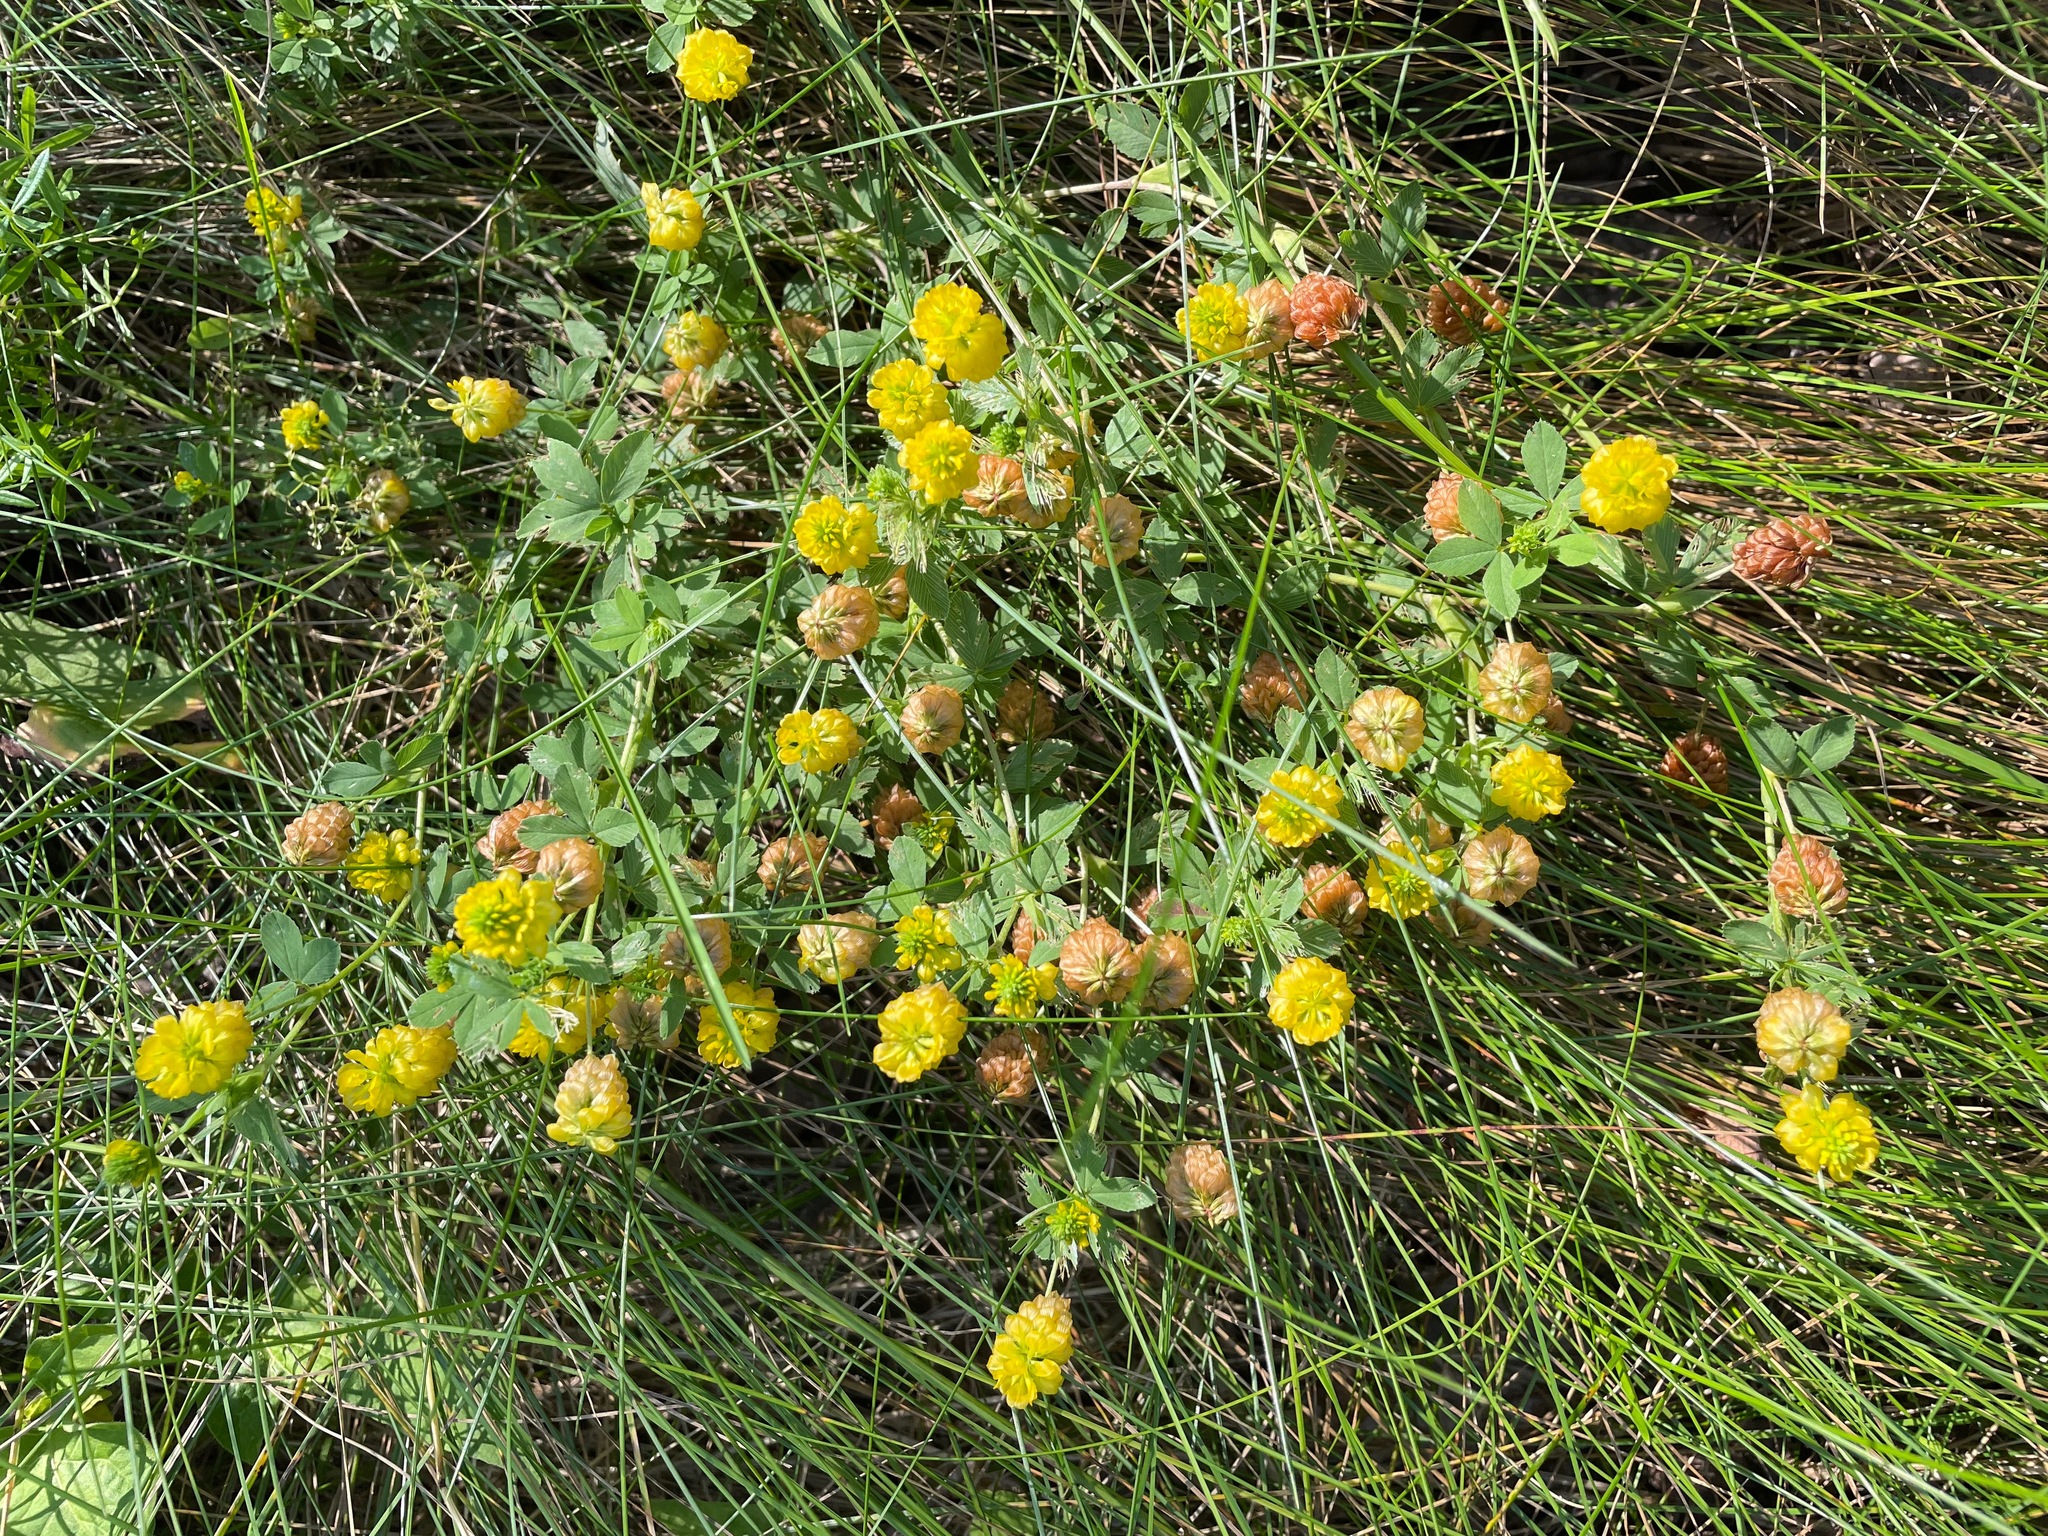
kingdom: Plantae
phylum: Tracheophyta
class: Magnoliopsida
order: Fabales
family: Fabaceae
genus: Trifolium
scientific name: Trifolium aureum
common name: Golden clover
